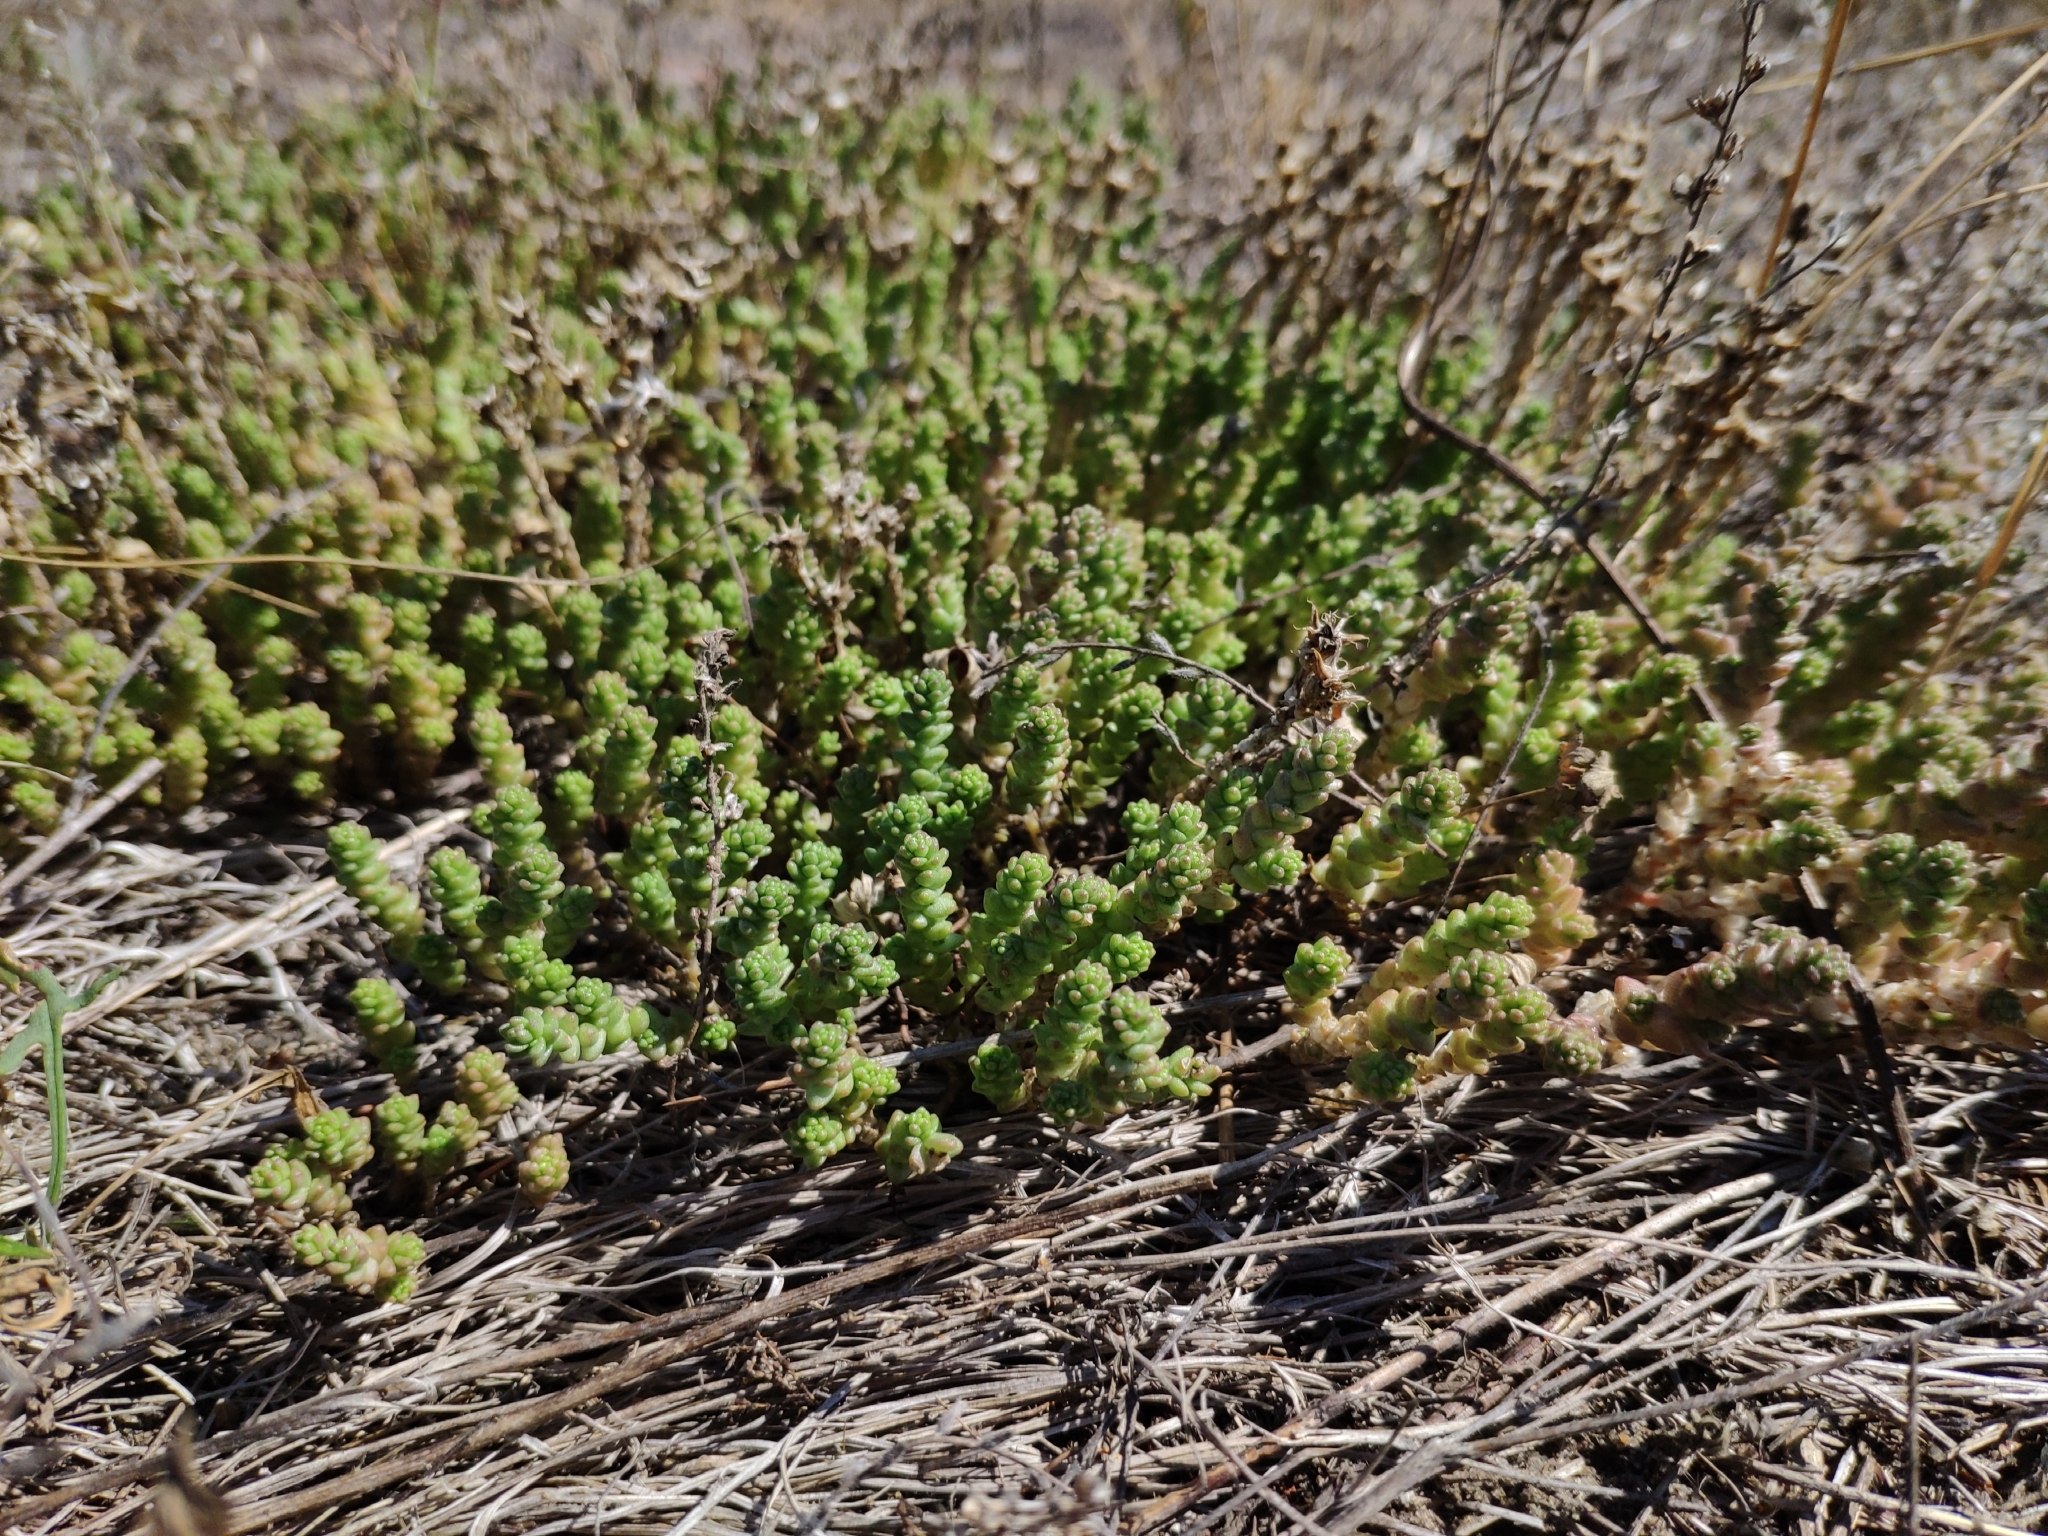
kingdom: Plantae
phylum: Tracheophyta
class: Magnoliopsida
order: Saxifragales
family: Crassulaceae
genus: Sedum
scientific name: Sedum acre
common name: Biting stonecrop
